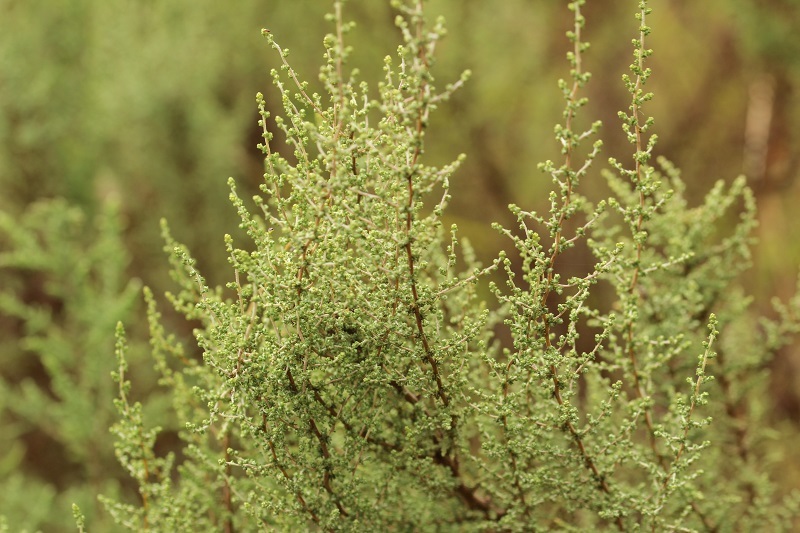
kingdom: Plantae
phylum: Tracheophyta
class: Magnoliopsida
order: Asterales
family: Asteraceae
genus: Seriphium
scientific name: Seriphium plumosum
